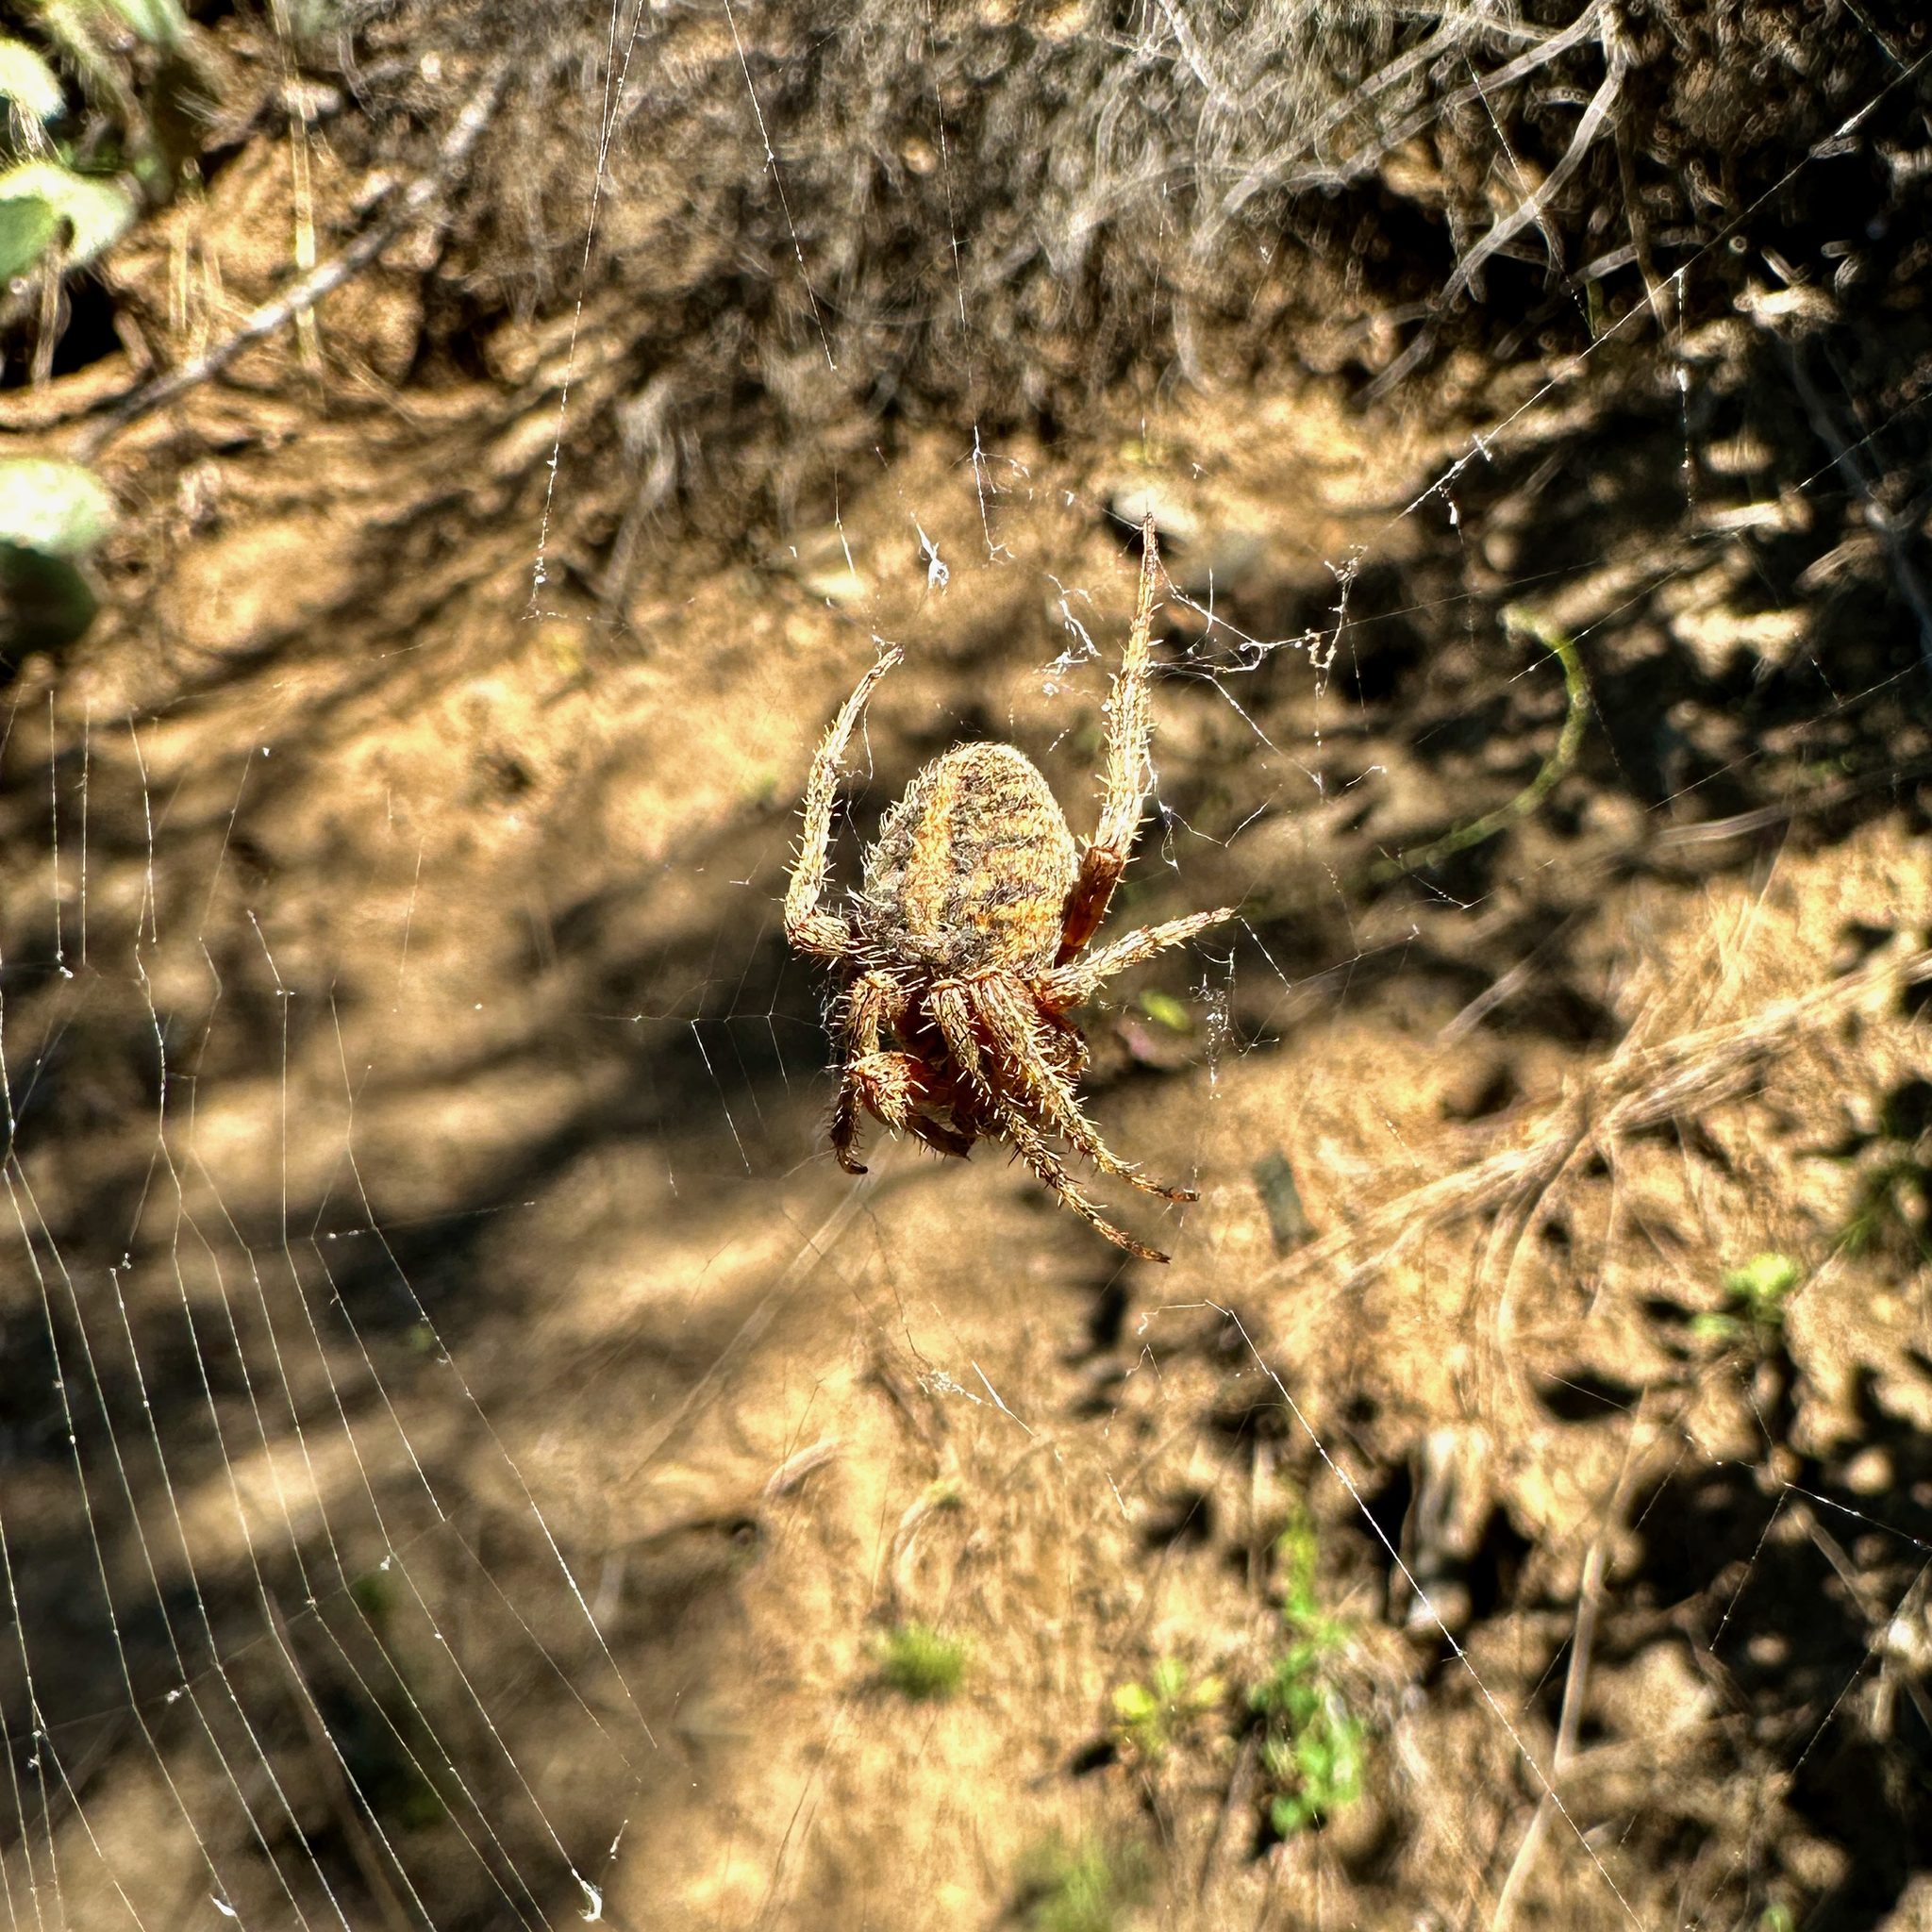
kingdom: Animalia
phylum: Arthropoda
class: Arachnida
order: Araneae
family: Araneidae
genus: Neoscona
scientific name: Neoscona crucifera
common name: Spotted orbweaver
